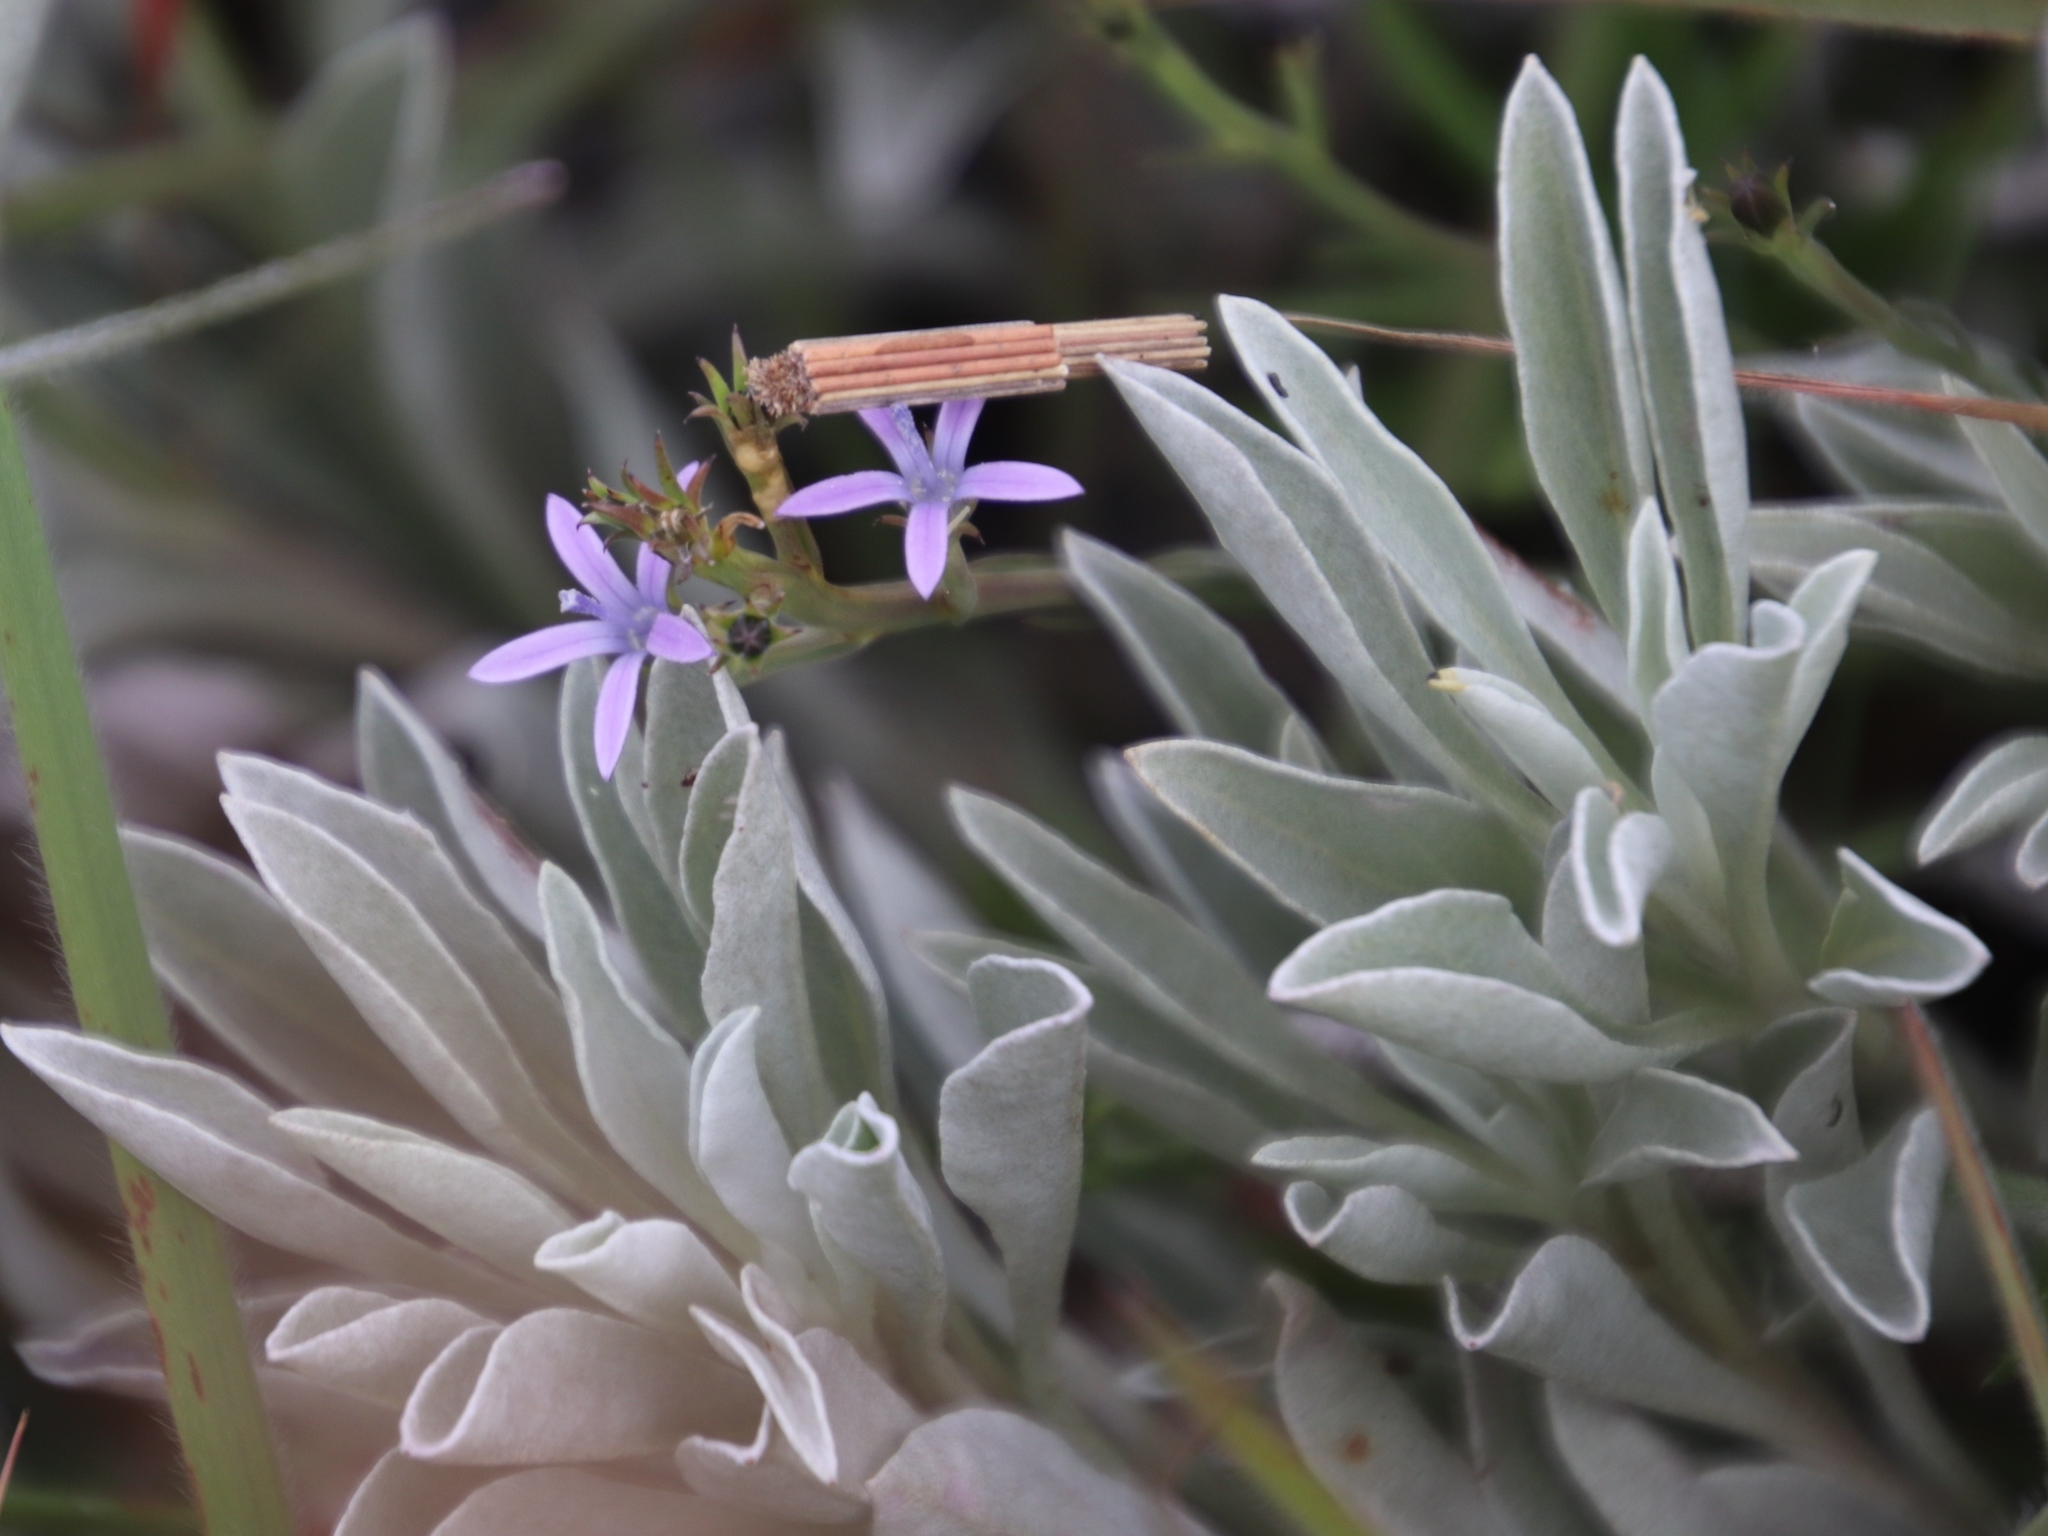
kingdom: Plantae
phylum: Tracheophyta
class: Magnoliopsida
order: Asterales
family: Campanulaceae
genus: Wahlenbergia
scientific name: Wahlenbergia huttonii
